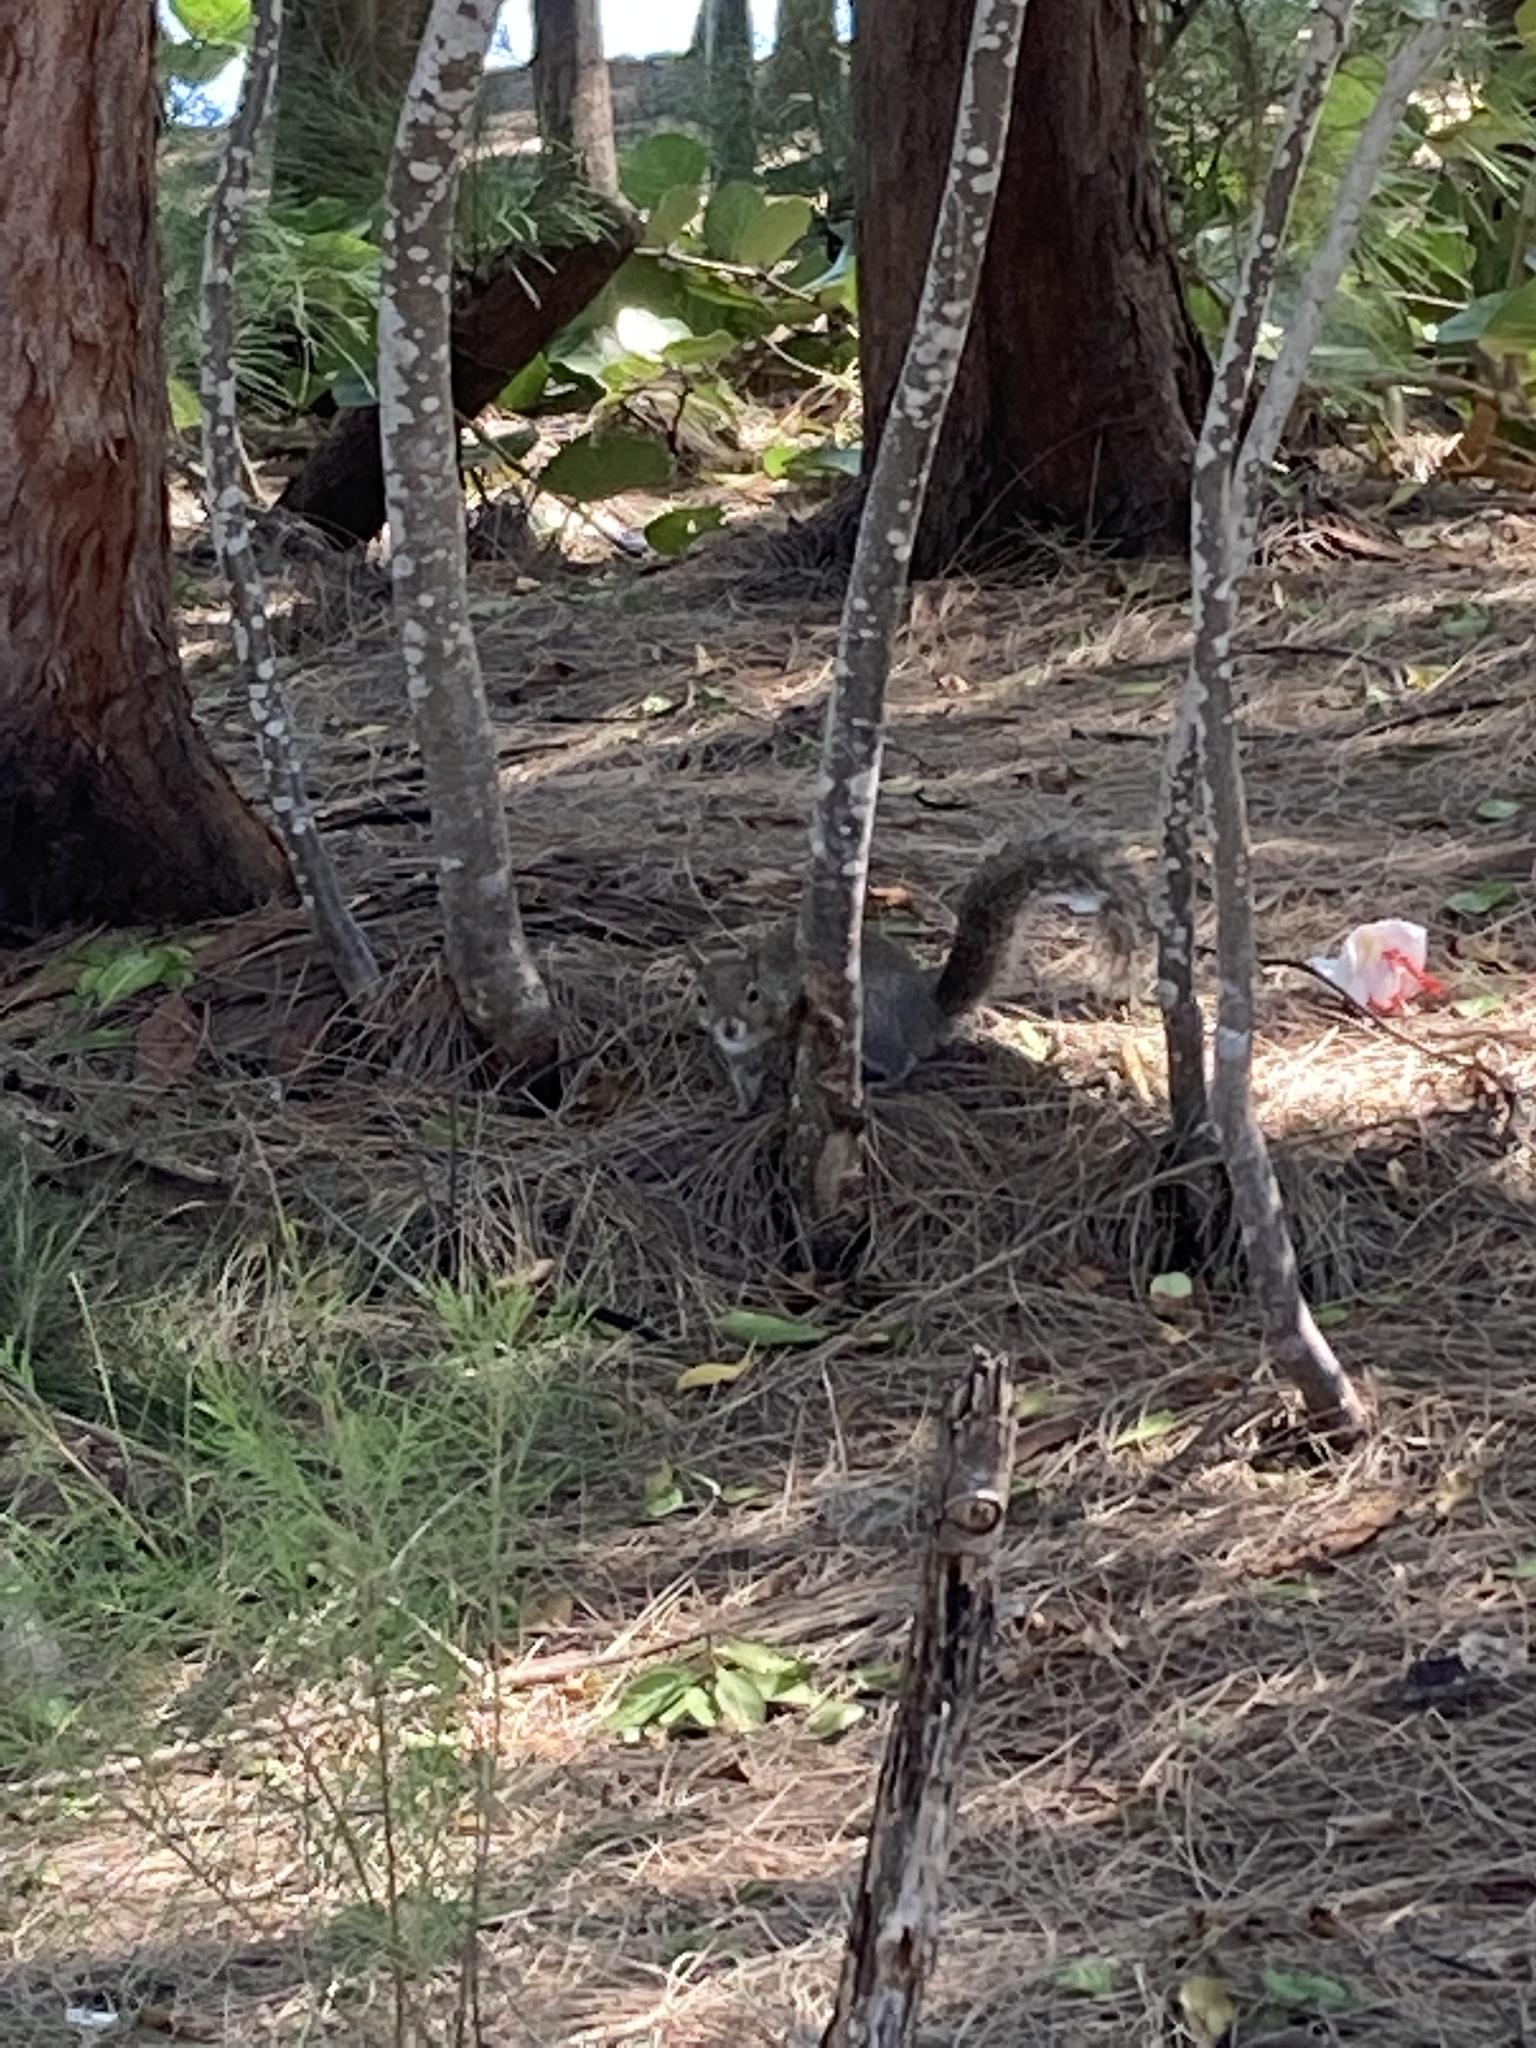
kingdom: Animalia
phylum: Chordata
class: Mammalia
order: Rodentia
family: Sciuridae
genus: Sciurus
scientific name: Sciurus carolinensis
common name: Eastern gray squirrel
